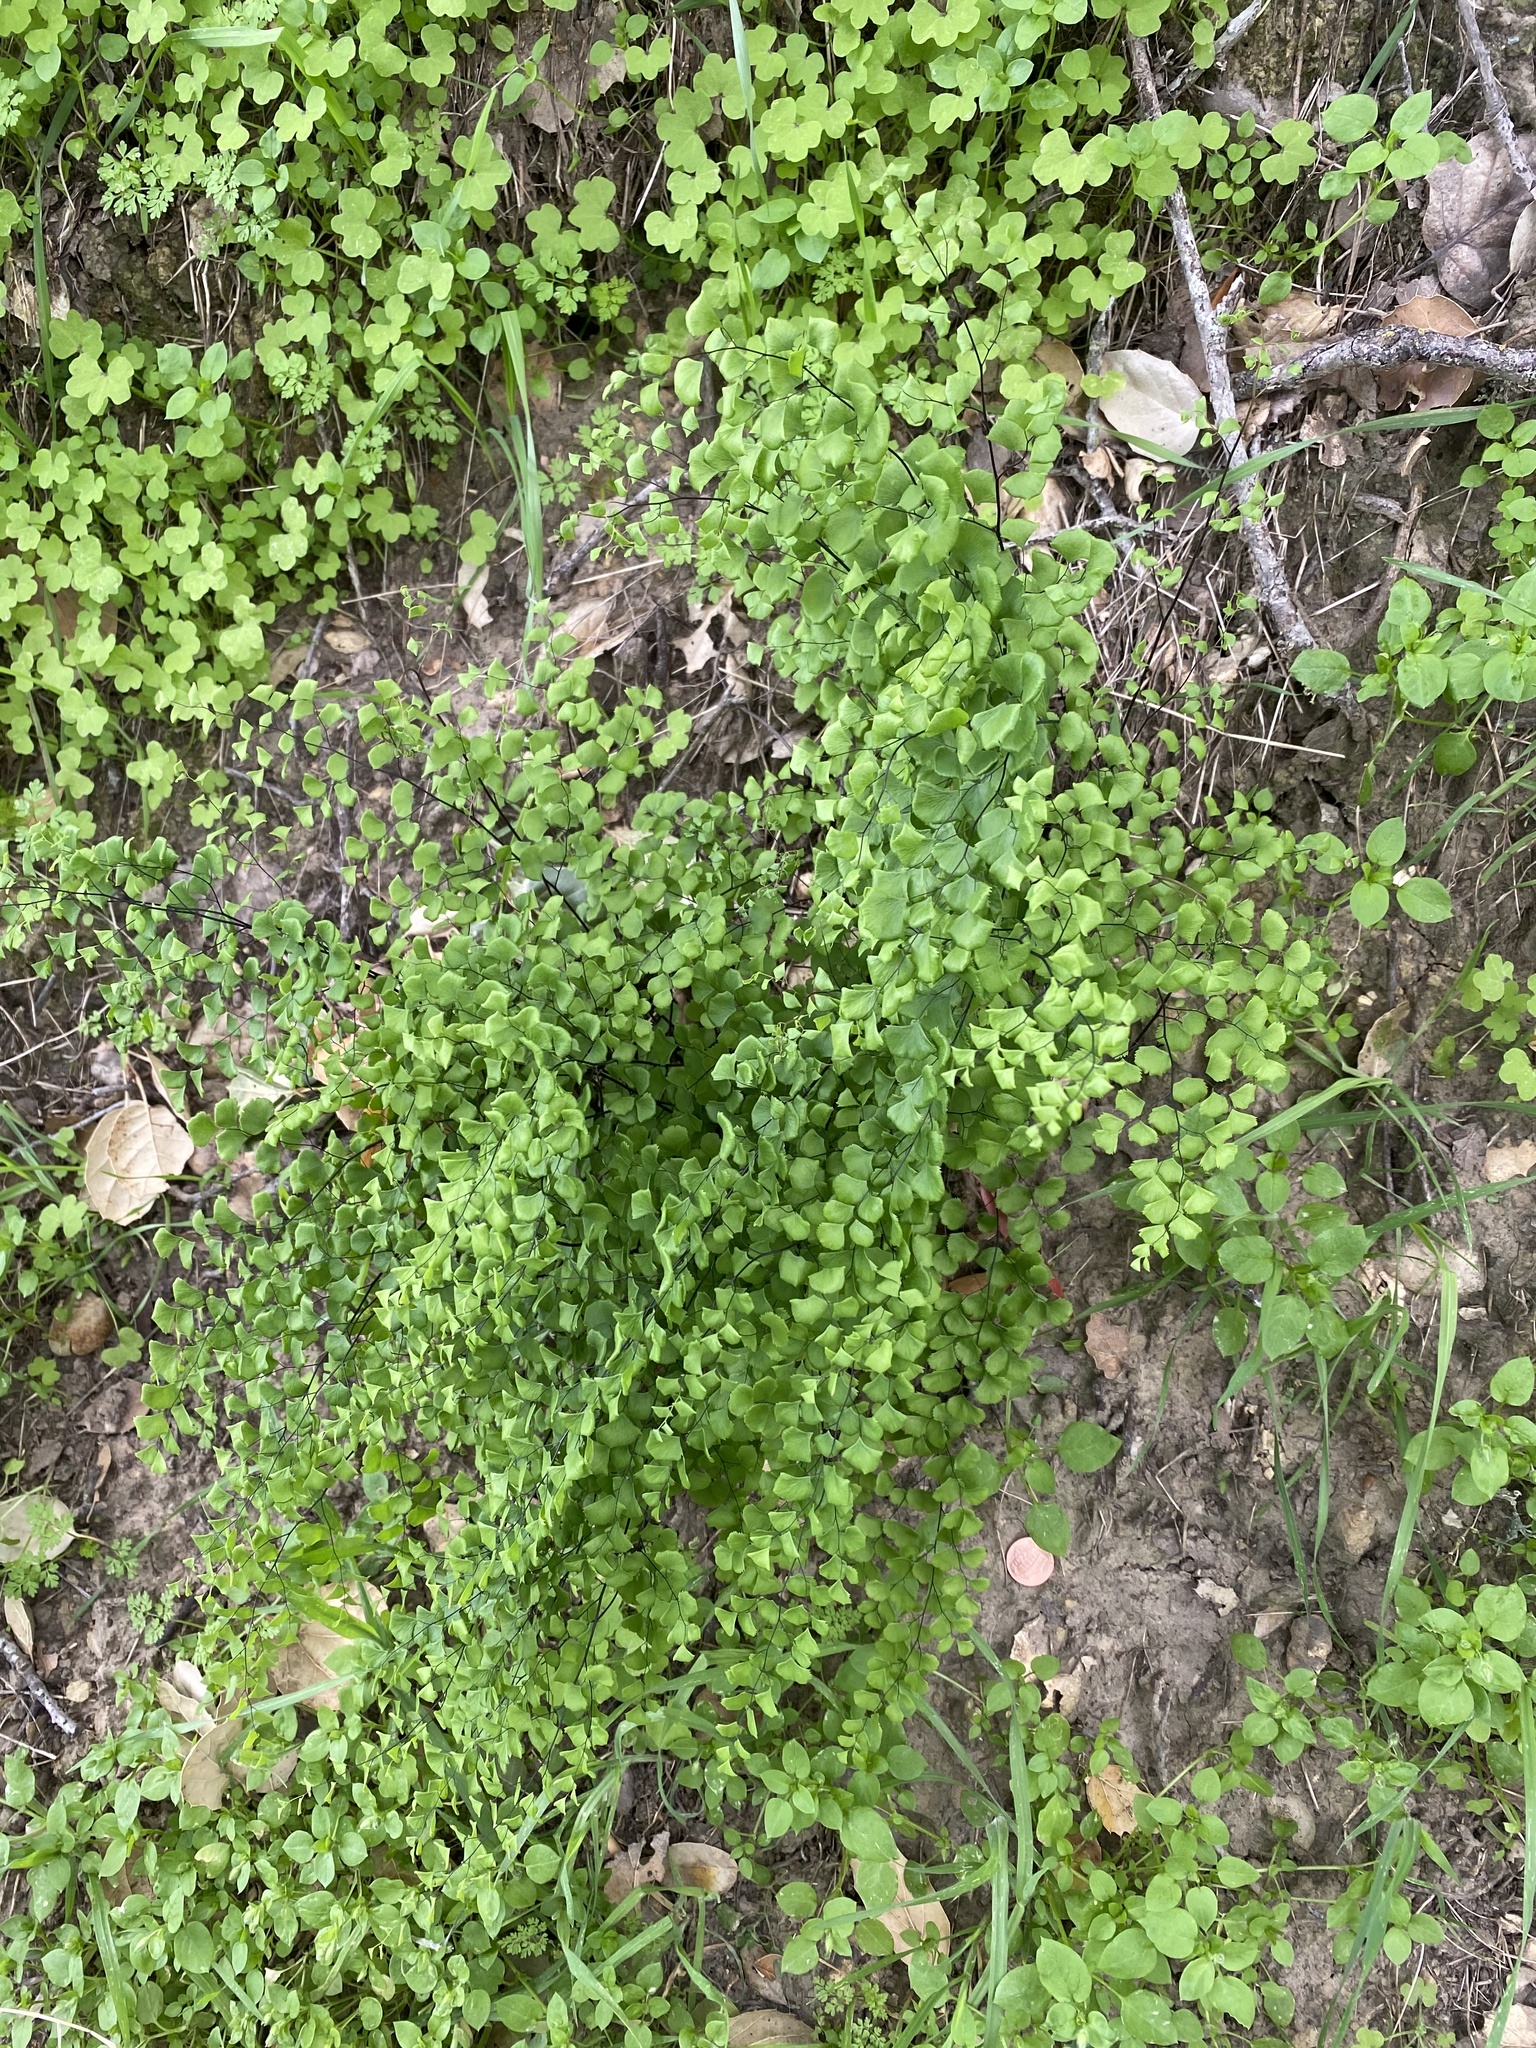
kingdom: Plantae
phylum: Tracheophyta
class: Polypodiopsida
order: Polypodiales
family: Pteridaceae
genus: Adiantum
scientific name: Adiantum jordanii
